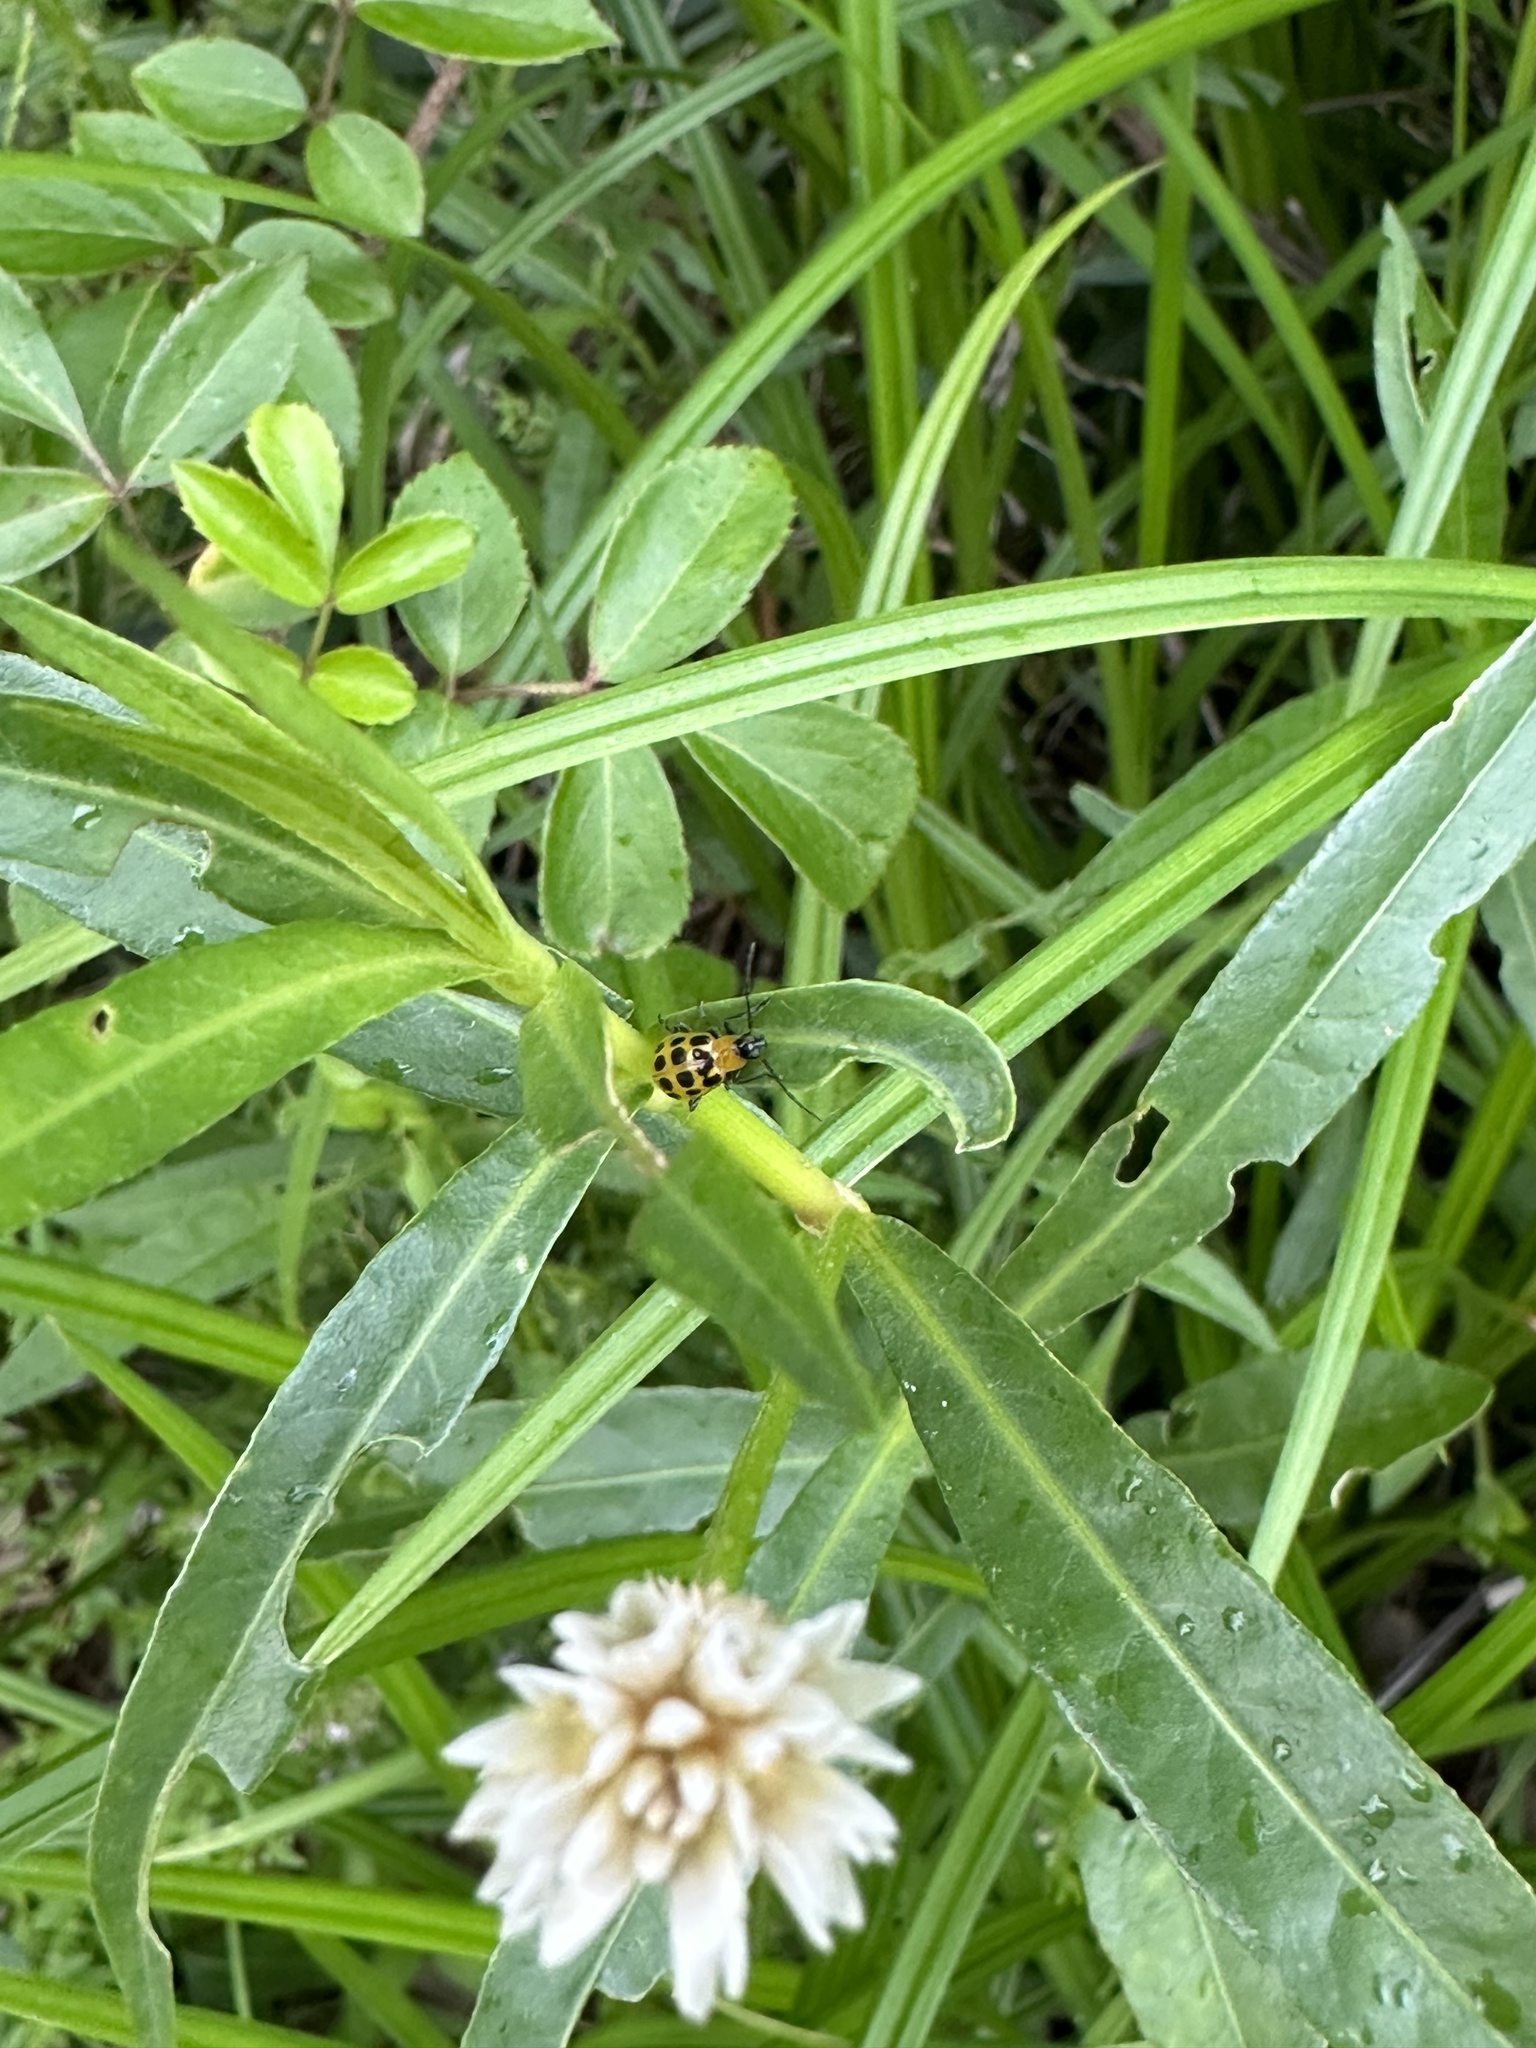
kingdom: Animalia
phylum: Arthropoda
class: Insecta
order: Coleoptera
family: Chrysomelidae
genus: Diabrotica
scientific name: Diabrotica undecimpunctata
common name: Spotted cucumber beetle
